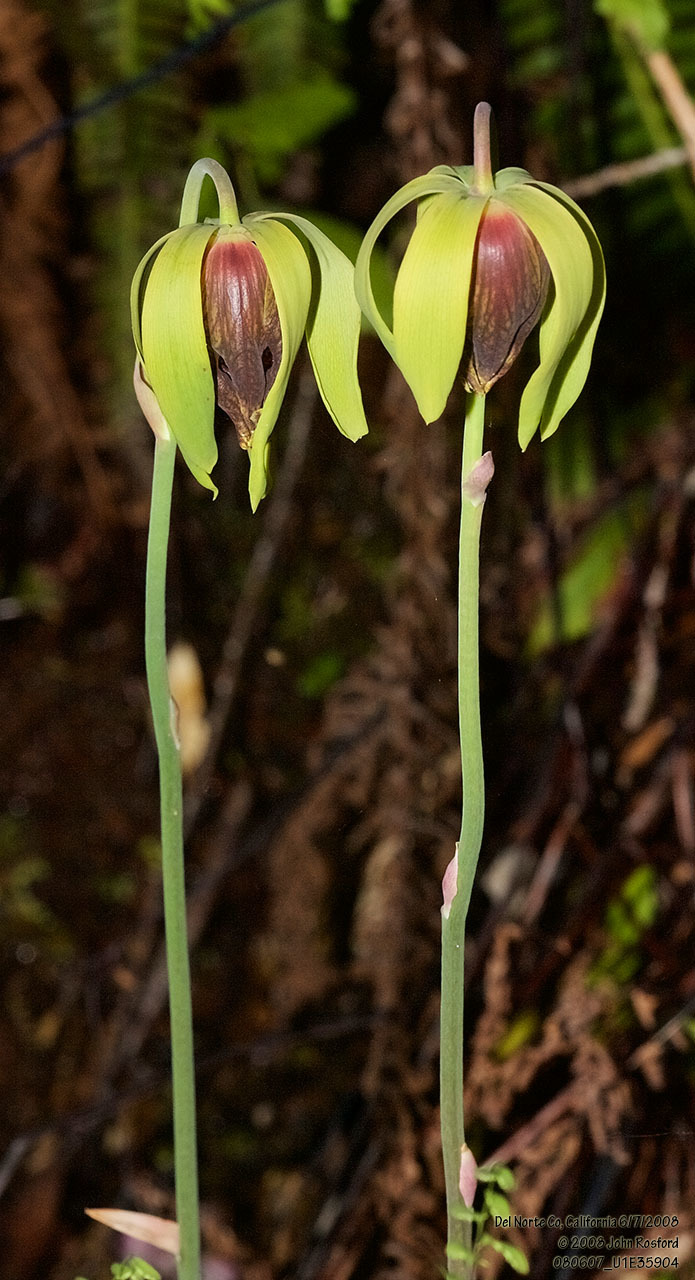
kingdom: Plantae
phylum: Tracheophyta
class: Magnoliopsida
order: Ericales
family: Sarraceniaceae
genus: Darlingtonia
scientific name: Darlingtonia californica
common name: California pitcher plant
